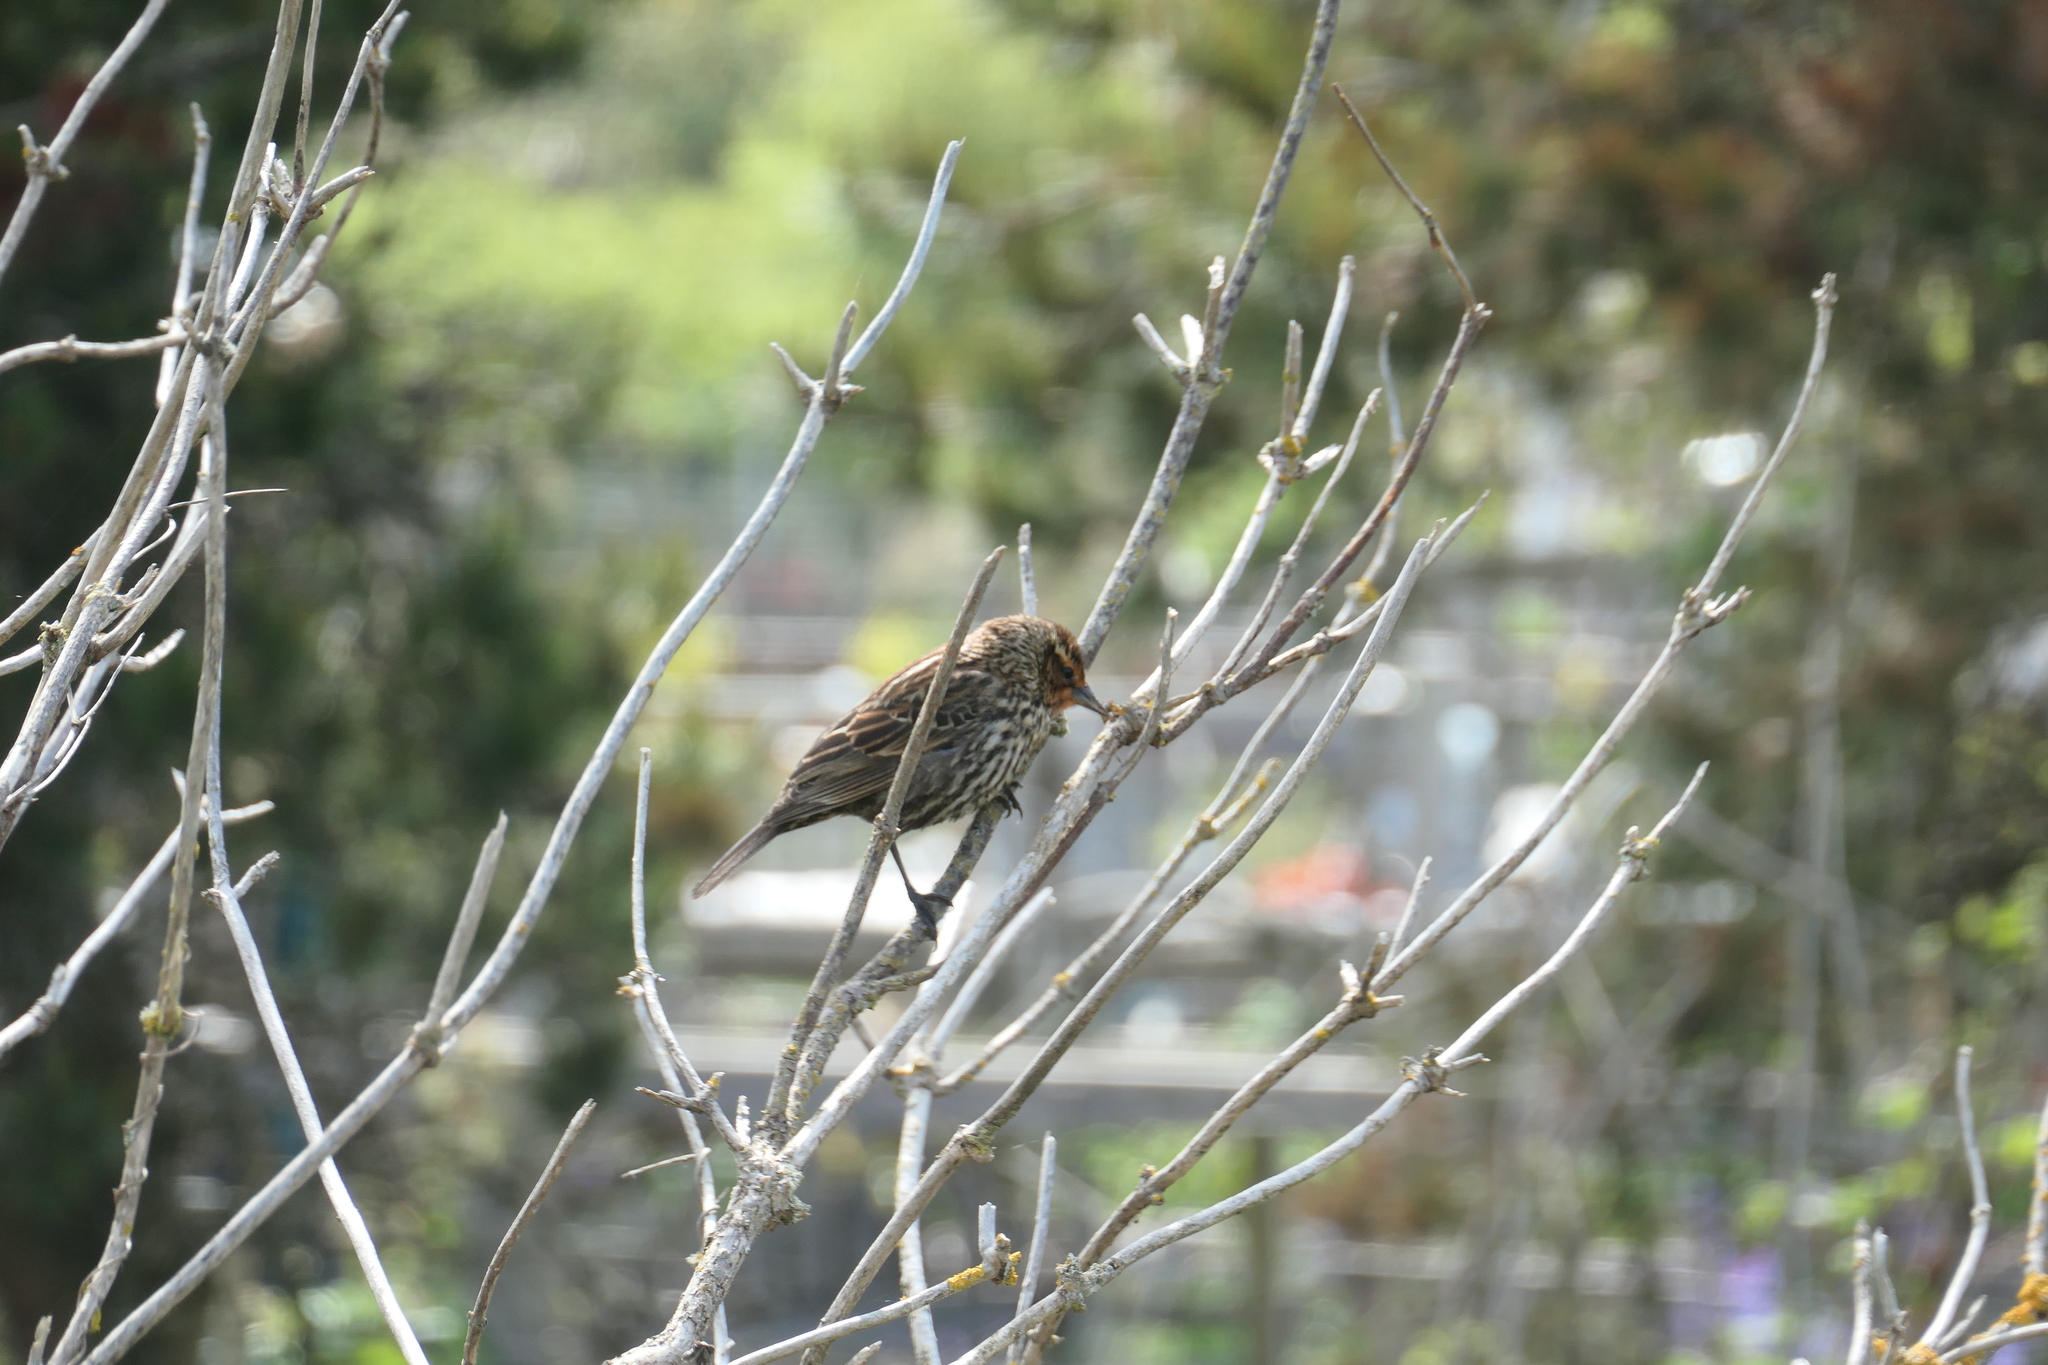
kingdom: Animalia
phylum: Chordata
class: Aves
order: Passeriformes
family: Icteridae
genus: Agelaius
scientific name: Agelaius phoeniceus
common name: Red-winged blackbird
